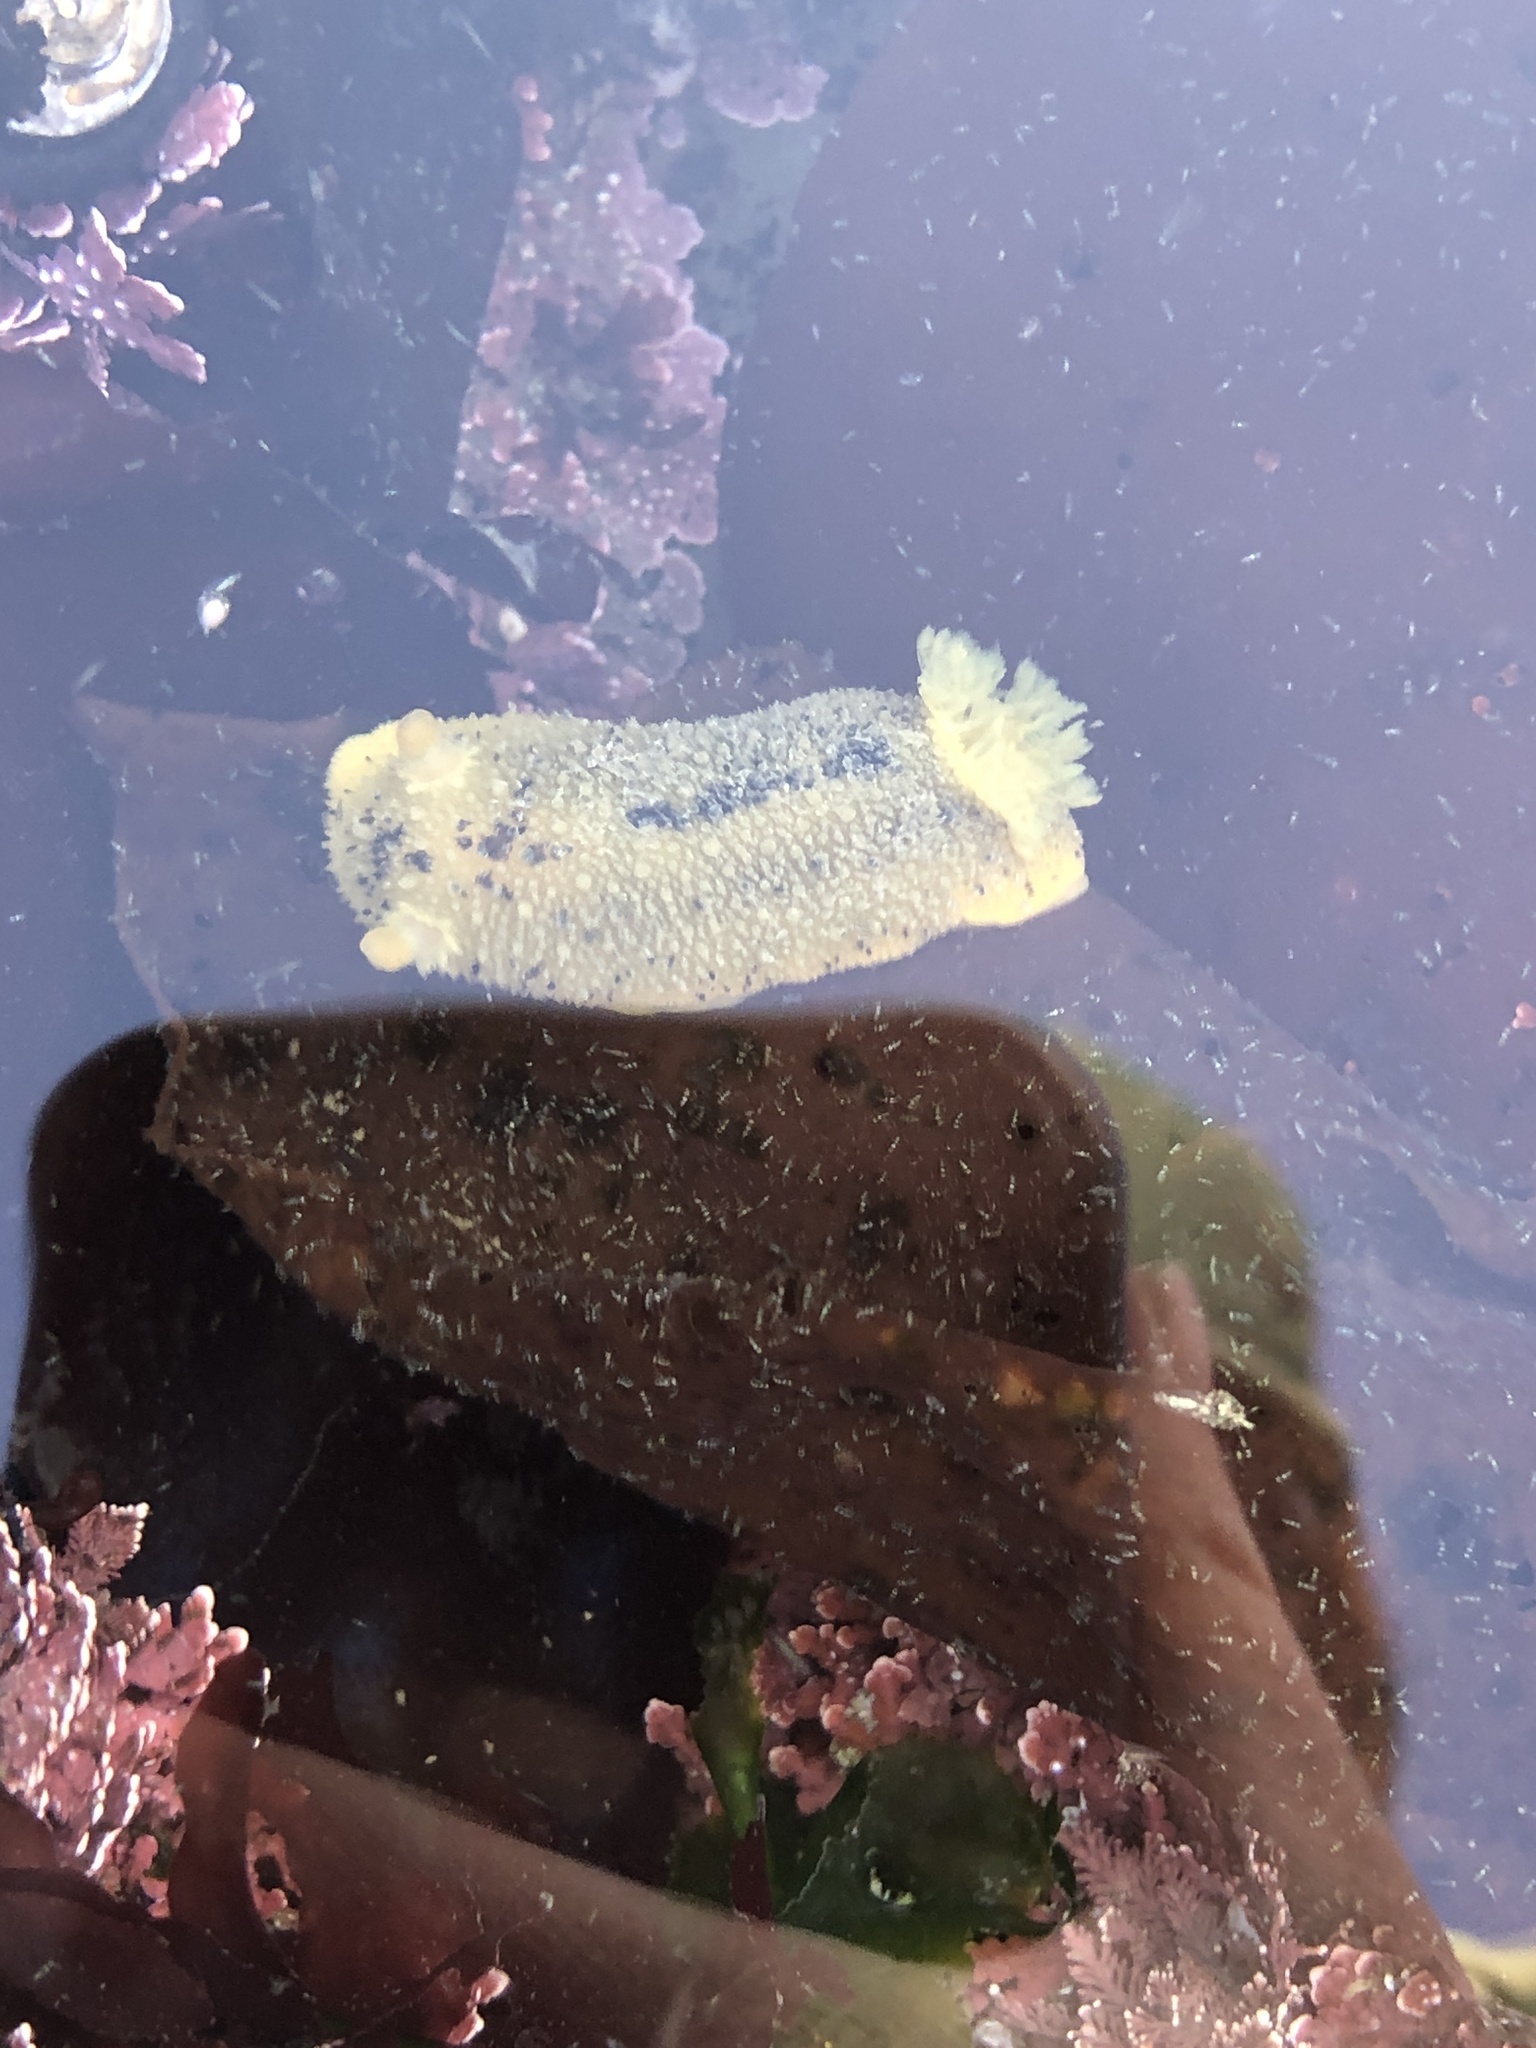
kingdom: Animalia
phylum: Mollusca
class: Gastropoda
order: Nudibranchia
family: Dorididae
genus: Doris
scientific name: Doris montereyensis
